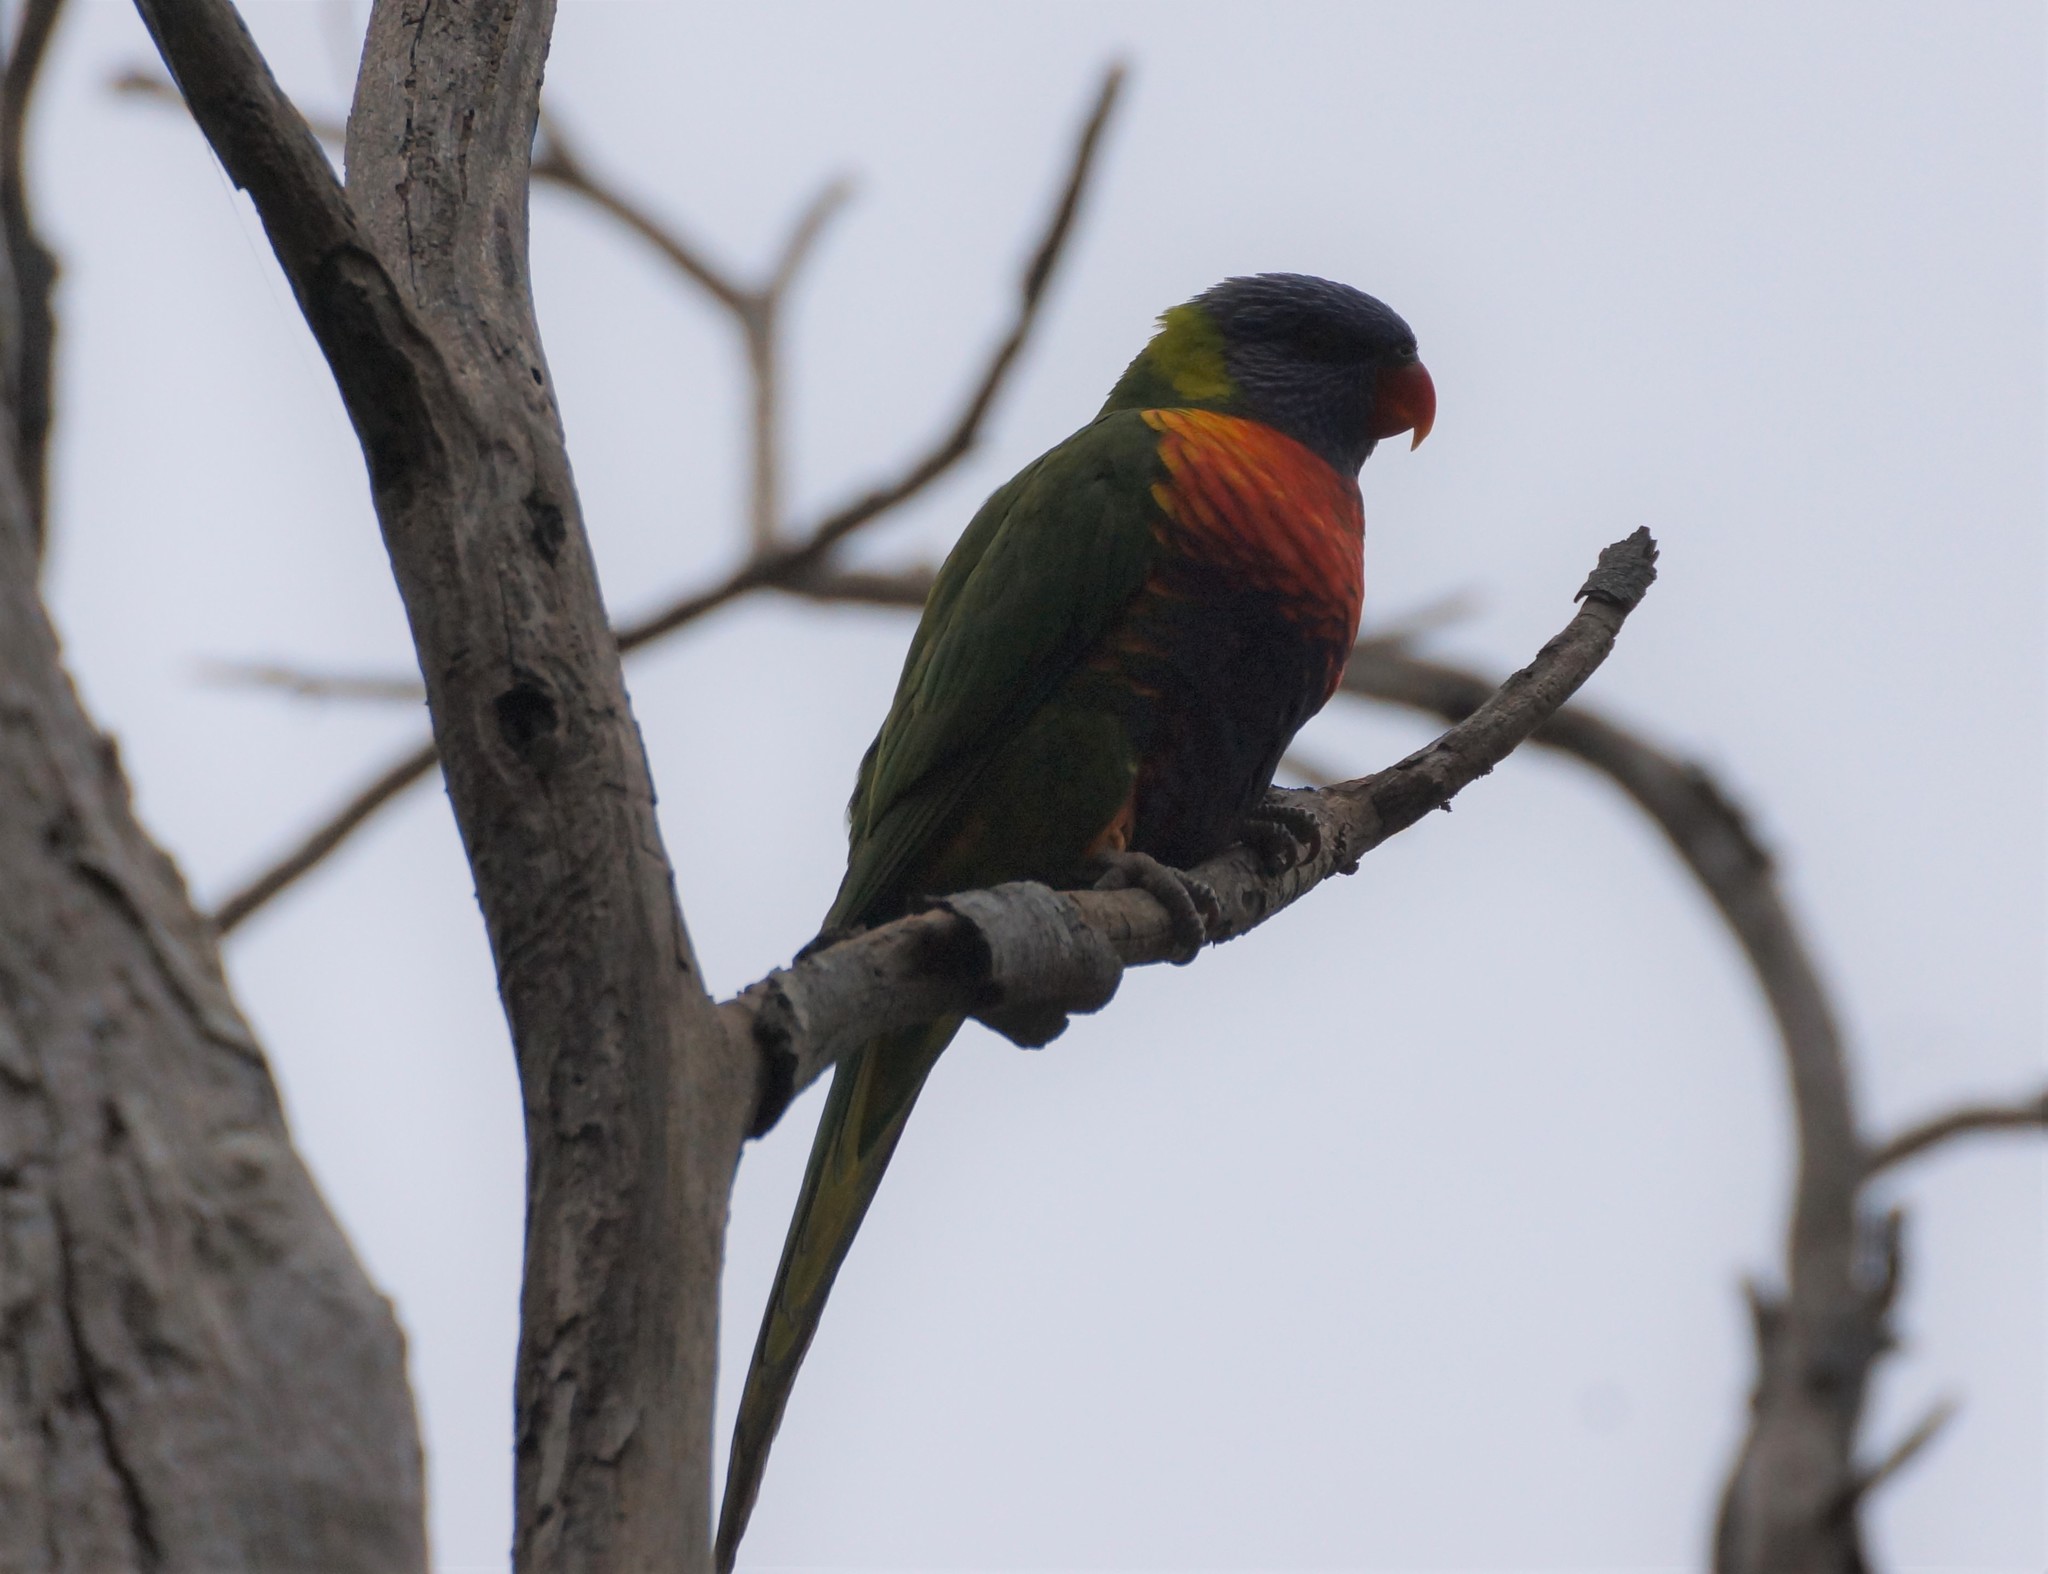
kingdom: Animalia
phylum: Chordata
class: Aves
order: Psittaciformes
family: Psittacidae
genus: Trichoglossus
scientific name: Trichoglossus haematodus
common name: Coconut lorikeet
